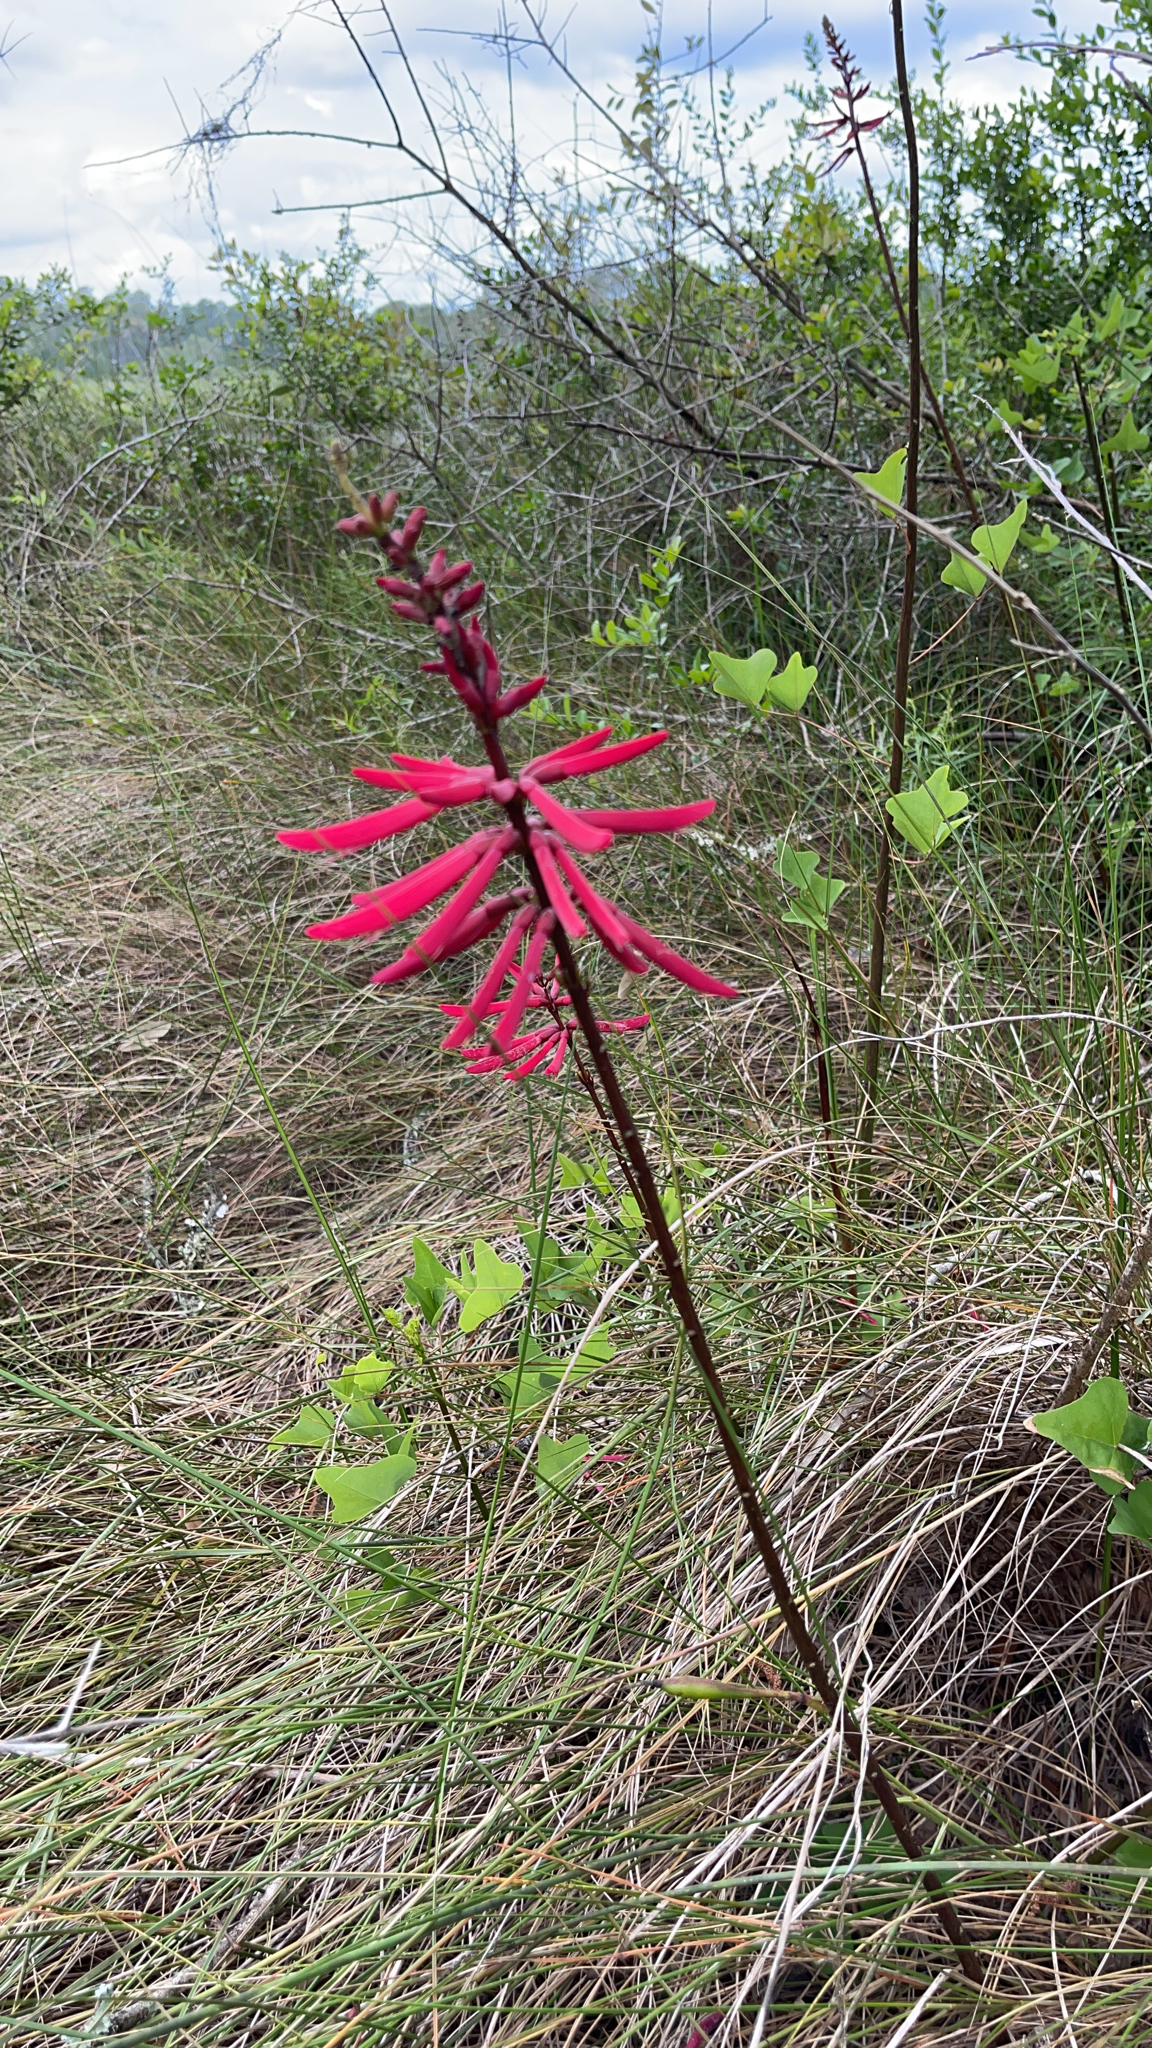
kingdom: Plantae
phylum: Tracheophyta
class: Magnoliopsida
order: Fabales
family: Fabaceae
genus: Erythrina
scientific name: Erythrina herbacea
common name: Coral-bean
